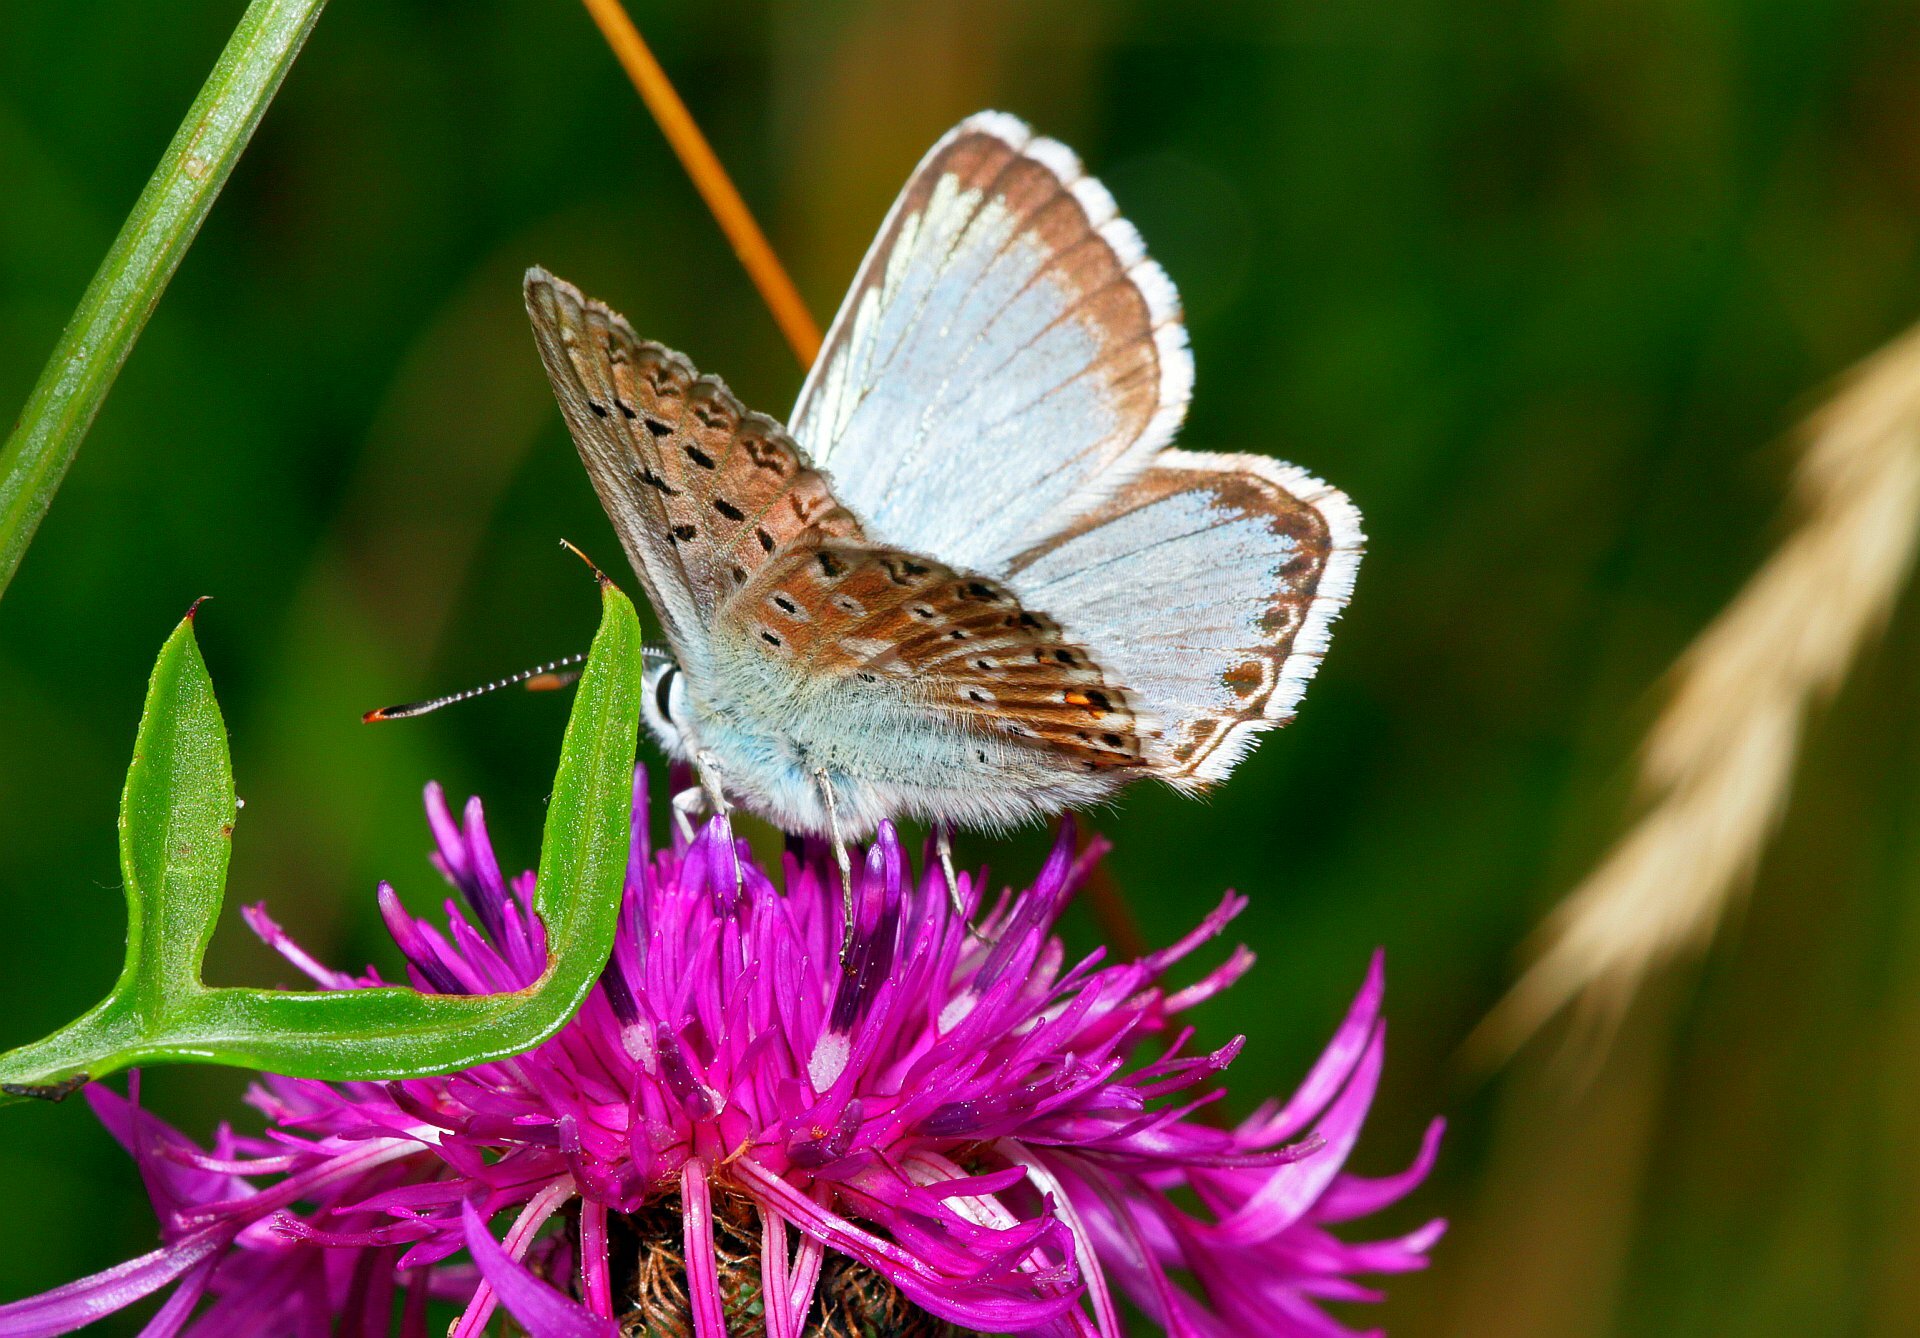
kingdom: Animalia
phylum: Arthropoda
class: Insecta
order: Lepidoptera
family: Lycaenidae
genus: Lysandra
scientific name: Lysandra coridon
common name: Chalkhill blue
